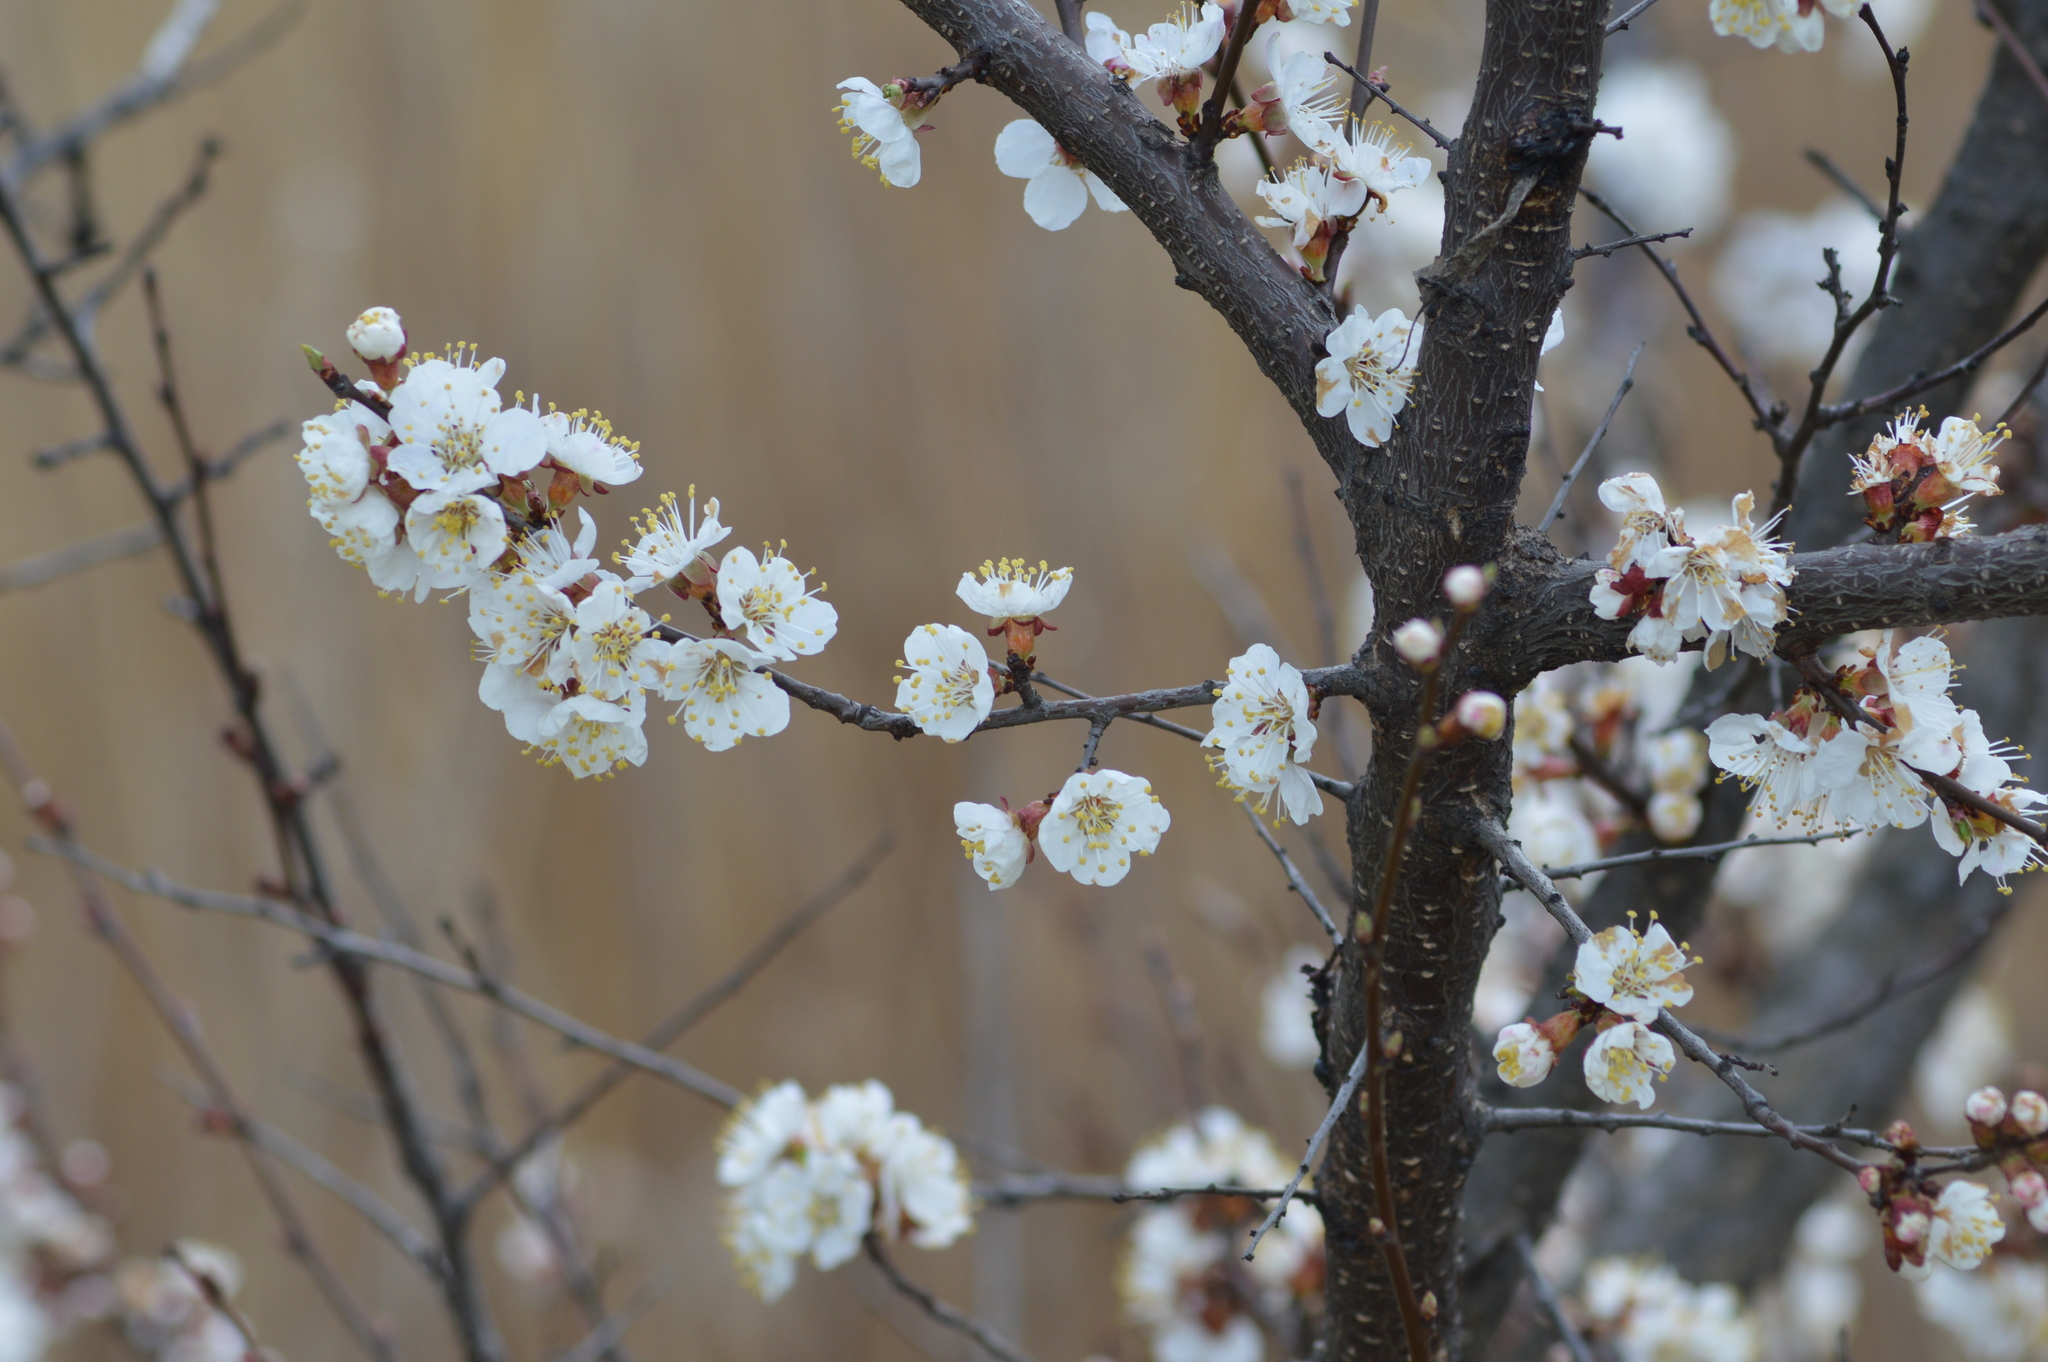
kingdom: Plantae
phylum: Tracheophyta
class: Magnoliopsida
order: Rosales
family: Rosaceae
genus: Prunus
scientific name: Prunus armeniaca
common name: Apricot
